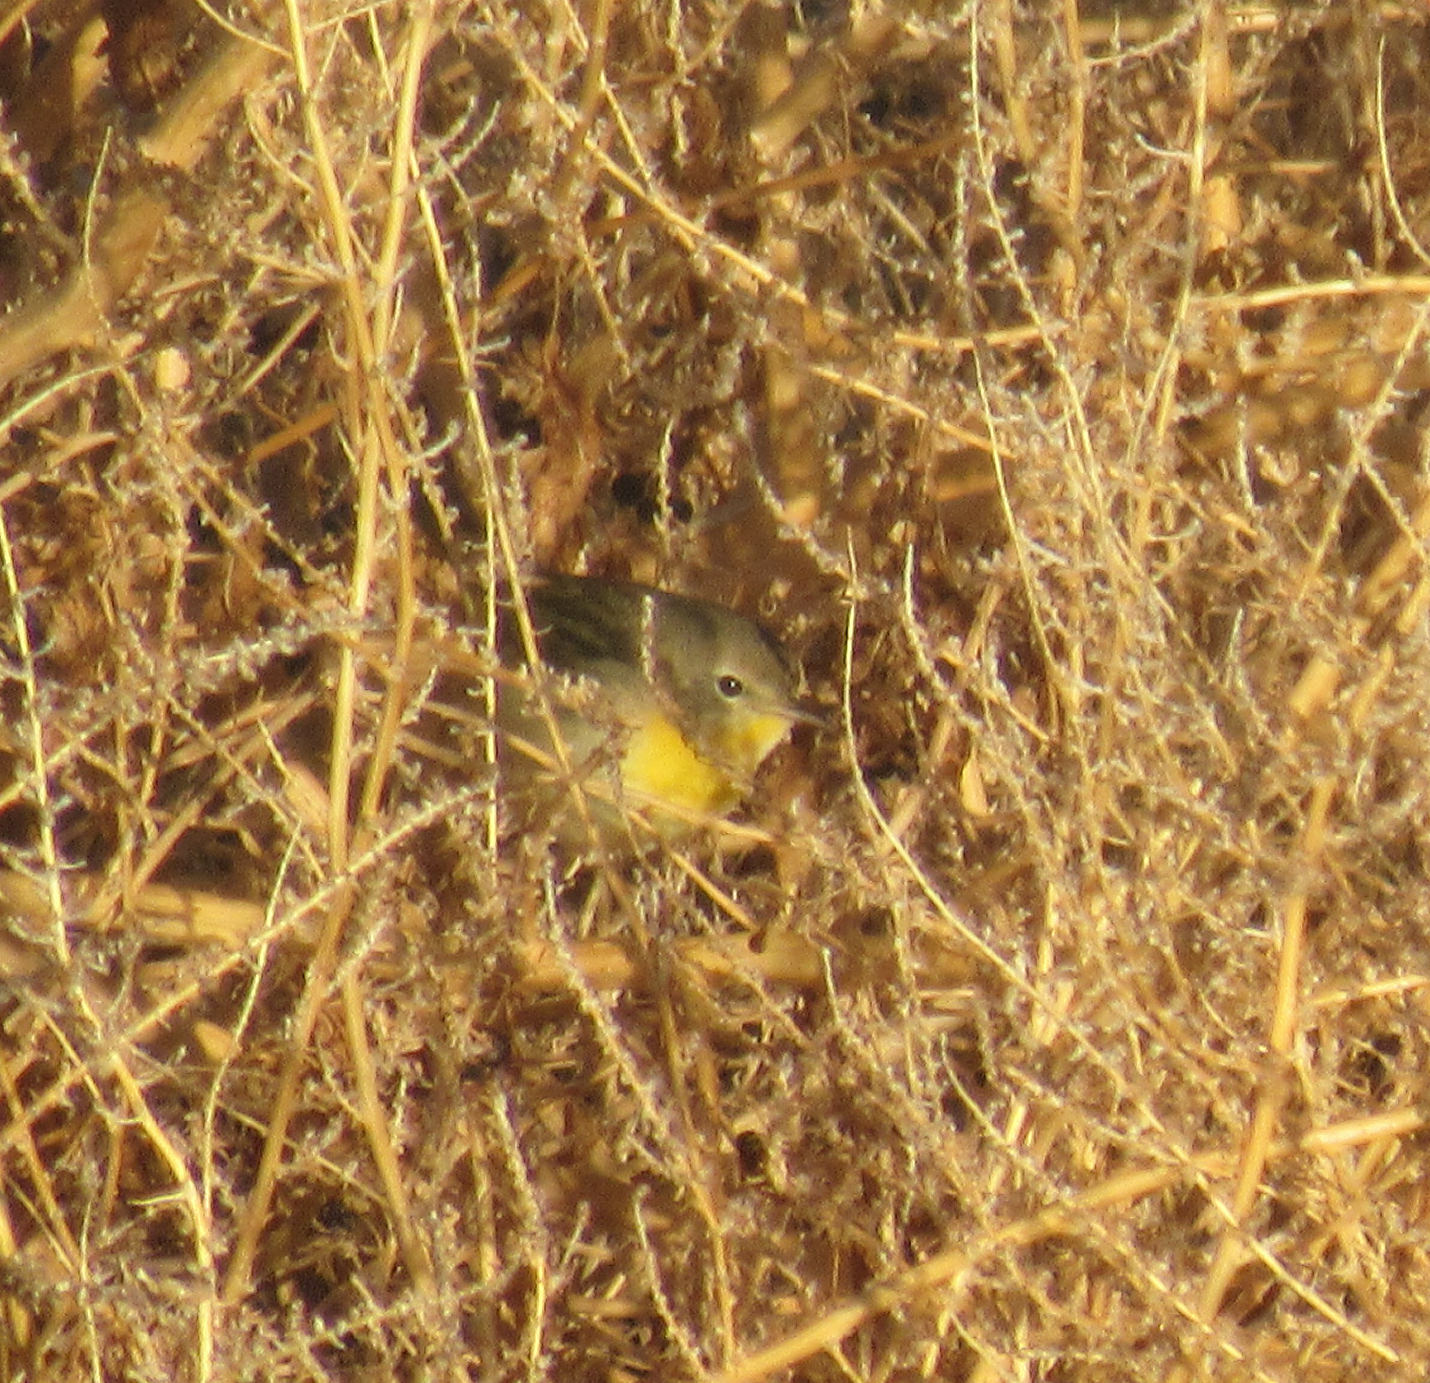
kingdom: Animalia
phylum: Chordata
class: Aves
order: Passeriformes
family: Parulidae
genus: Geothlypis
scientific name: Geothlypis trichas
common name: Common yellowthroat
